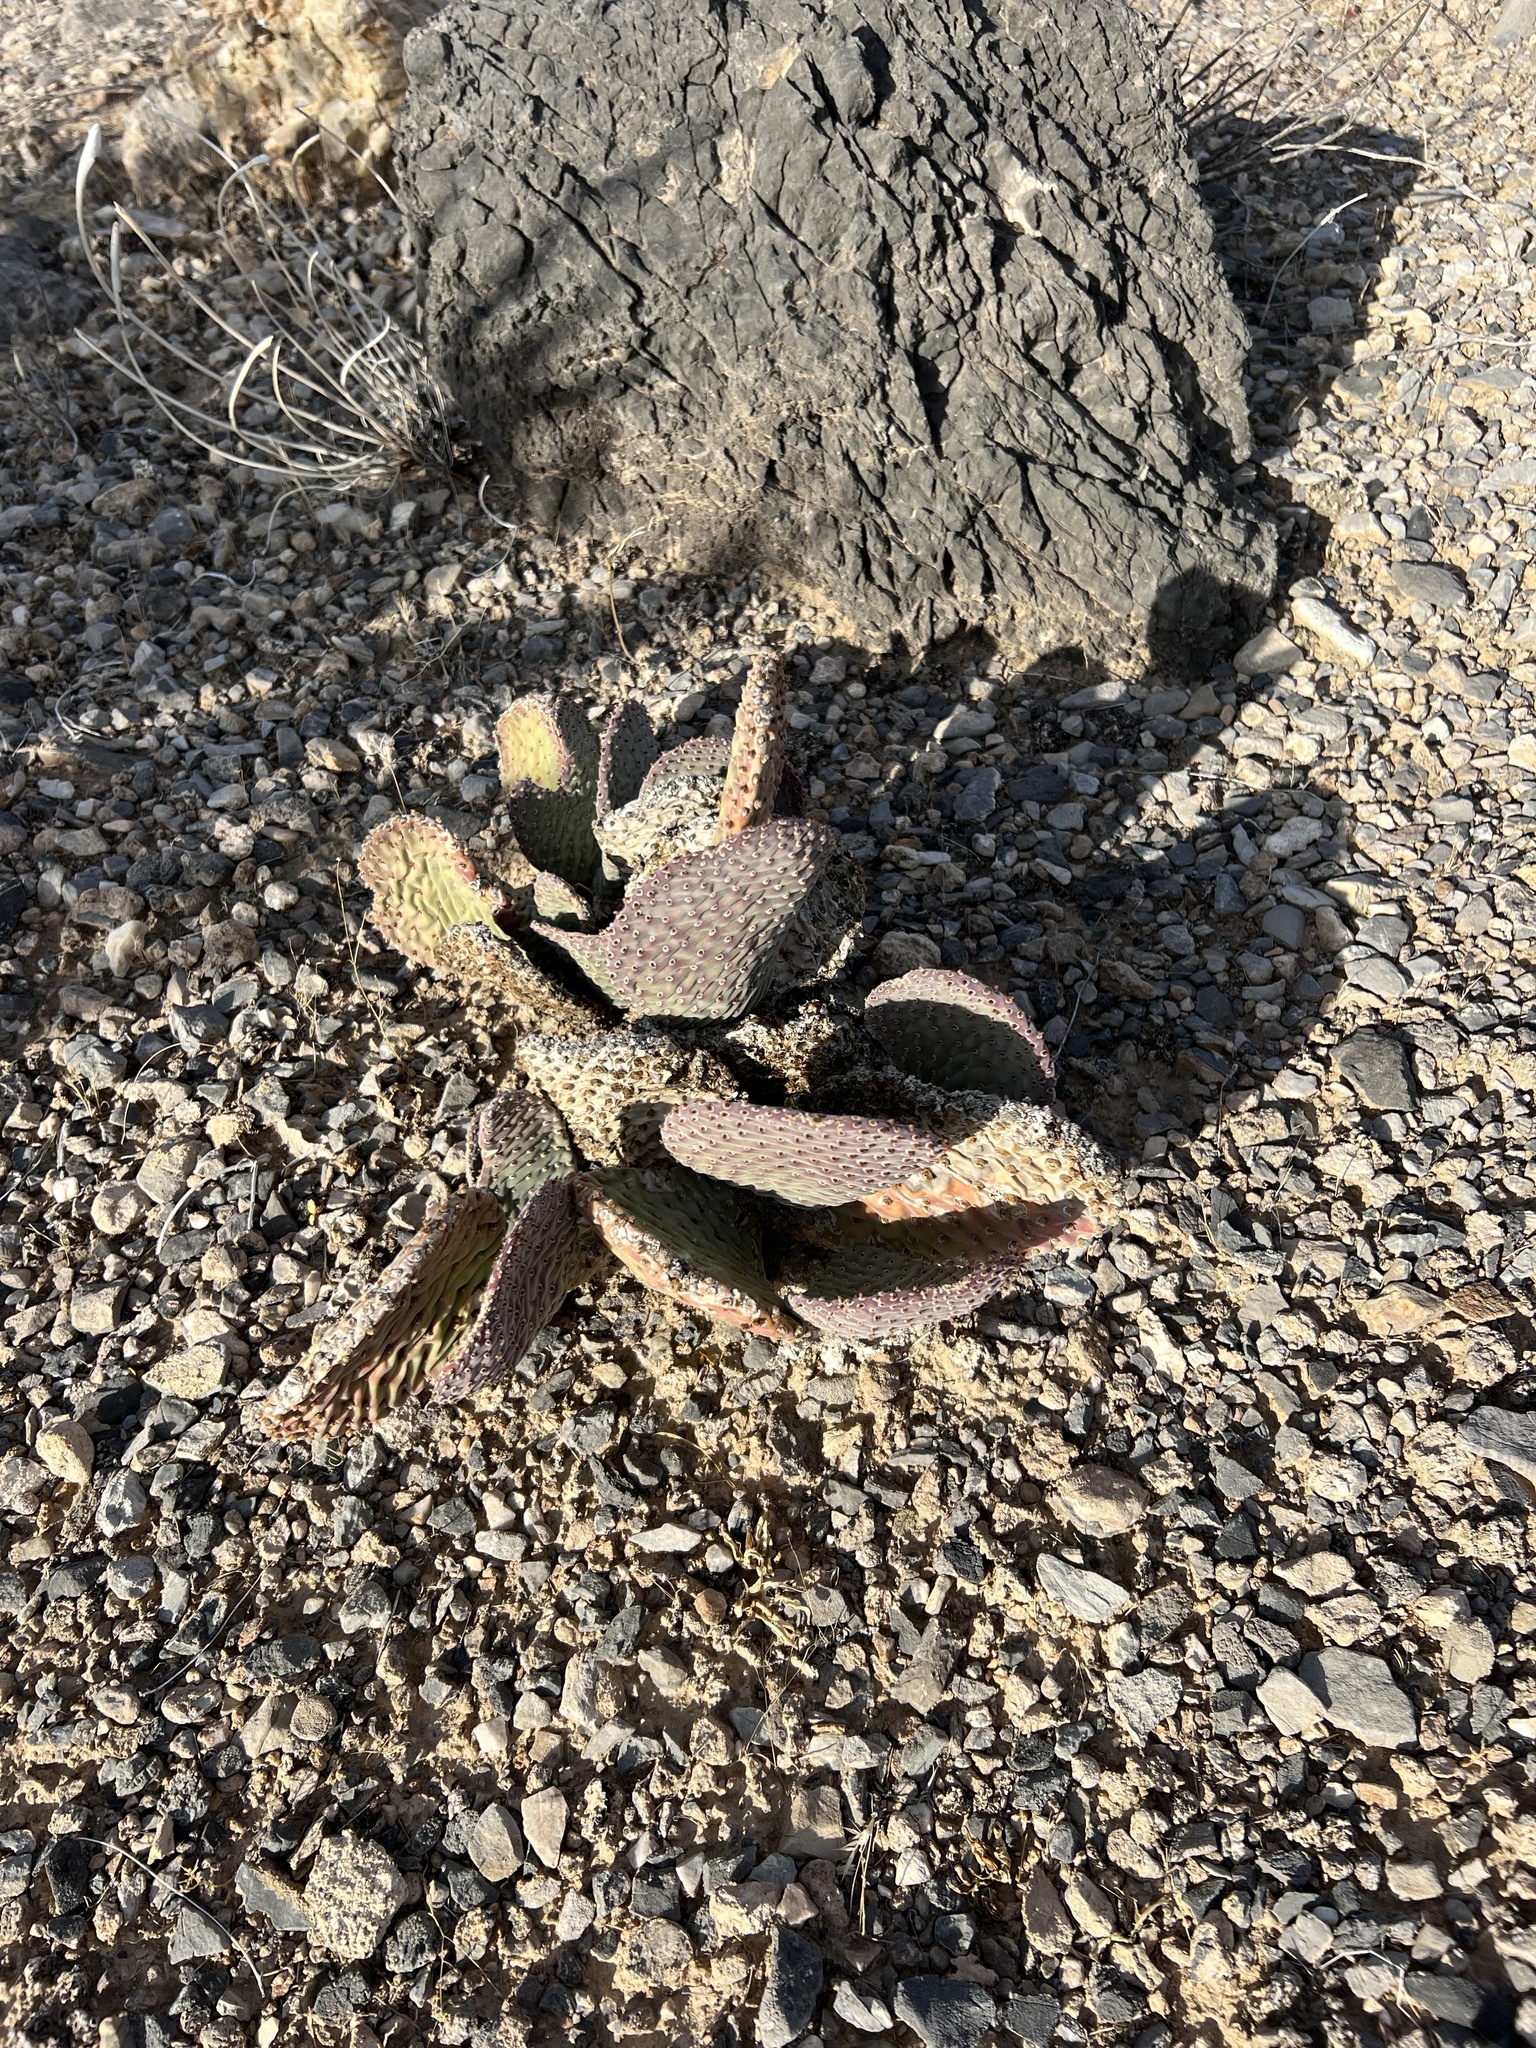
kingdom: Plantae
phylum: Tracheophyta
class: Magnoliopsida
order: Caryophyllales
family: Cactaceae
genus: Opuntia
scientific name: Opuntia basilaris
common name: Beavertail prickly-pear
